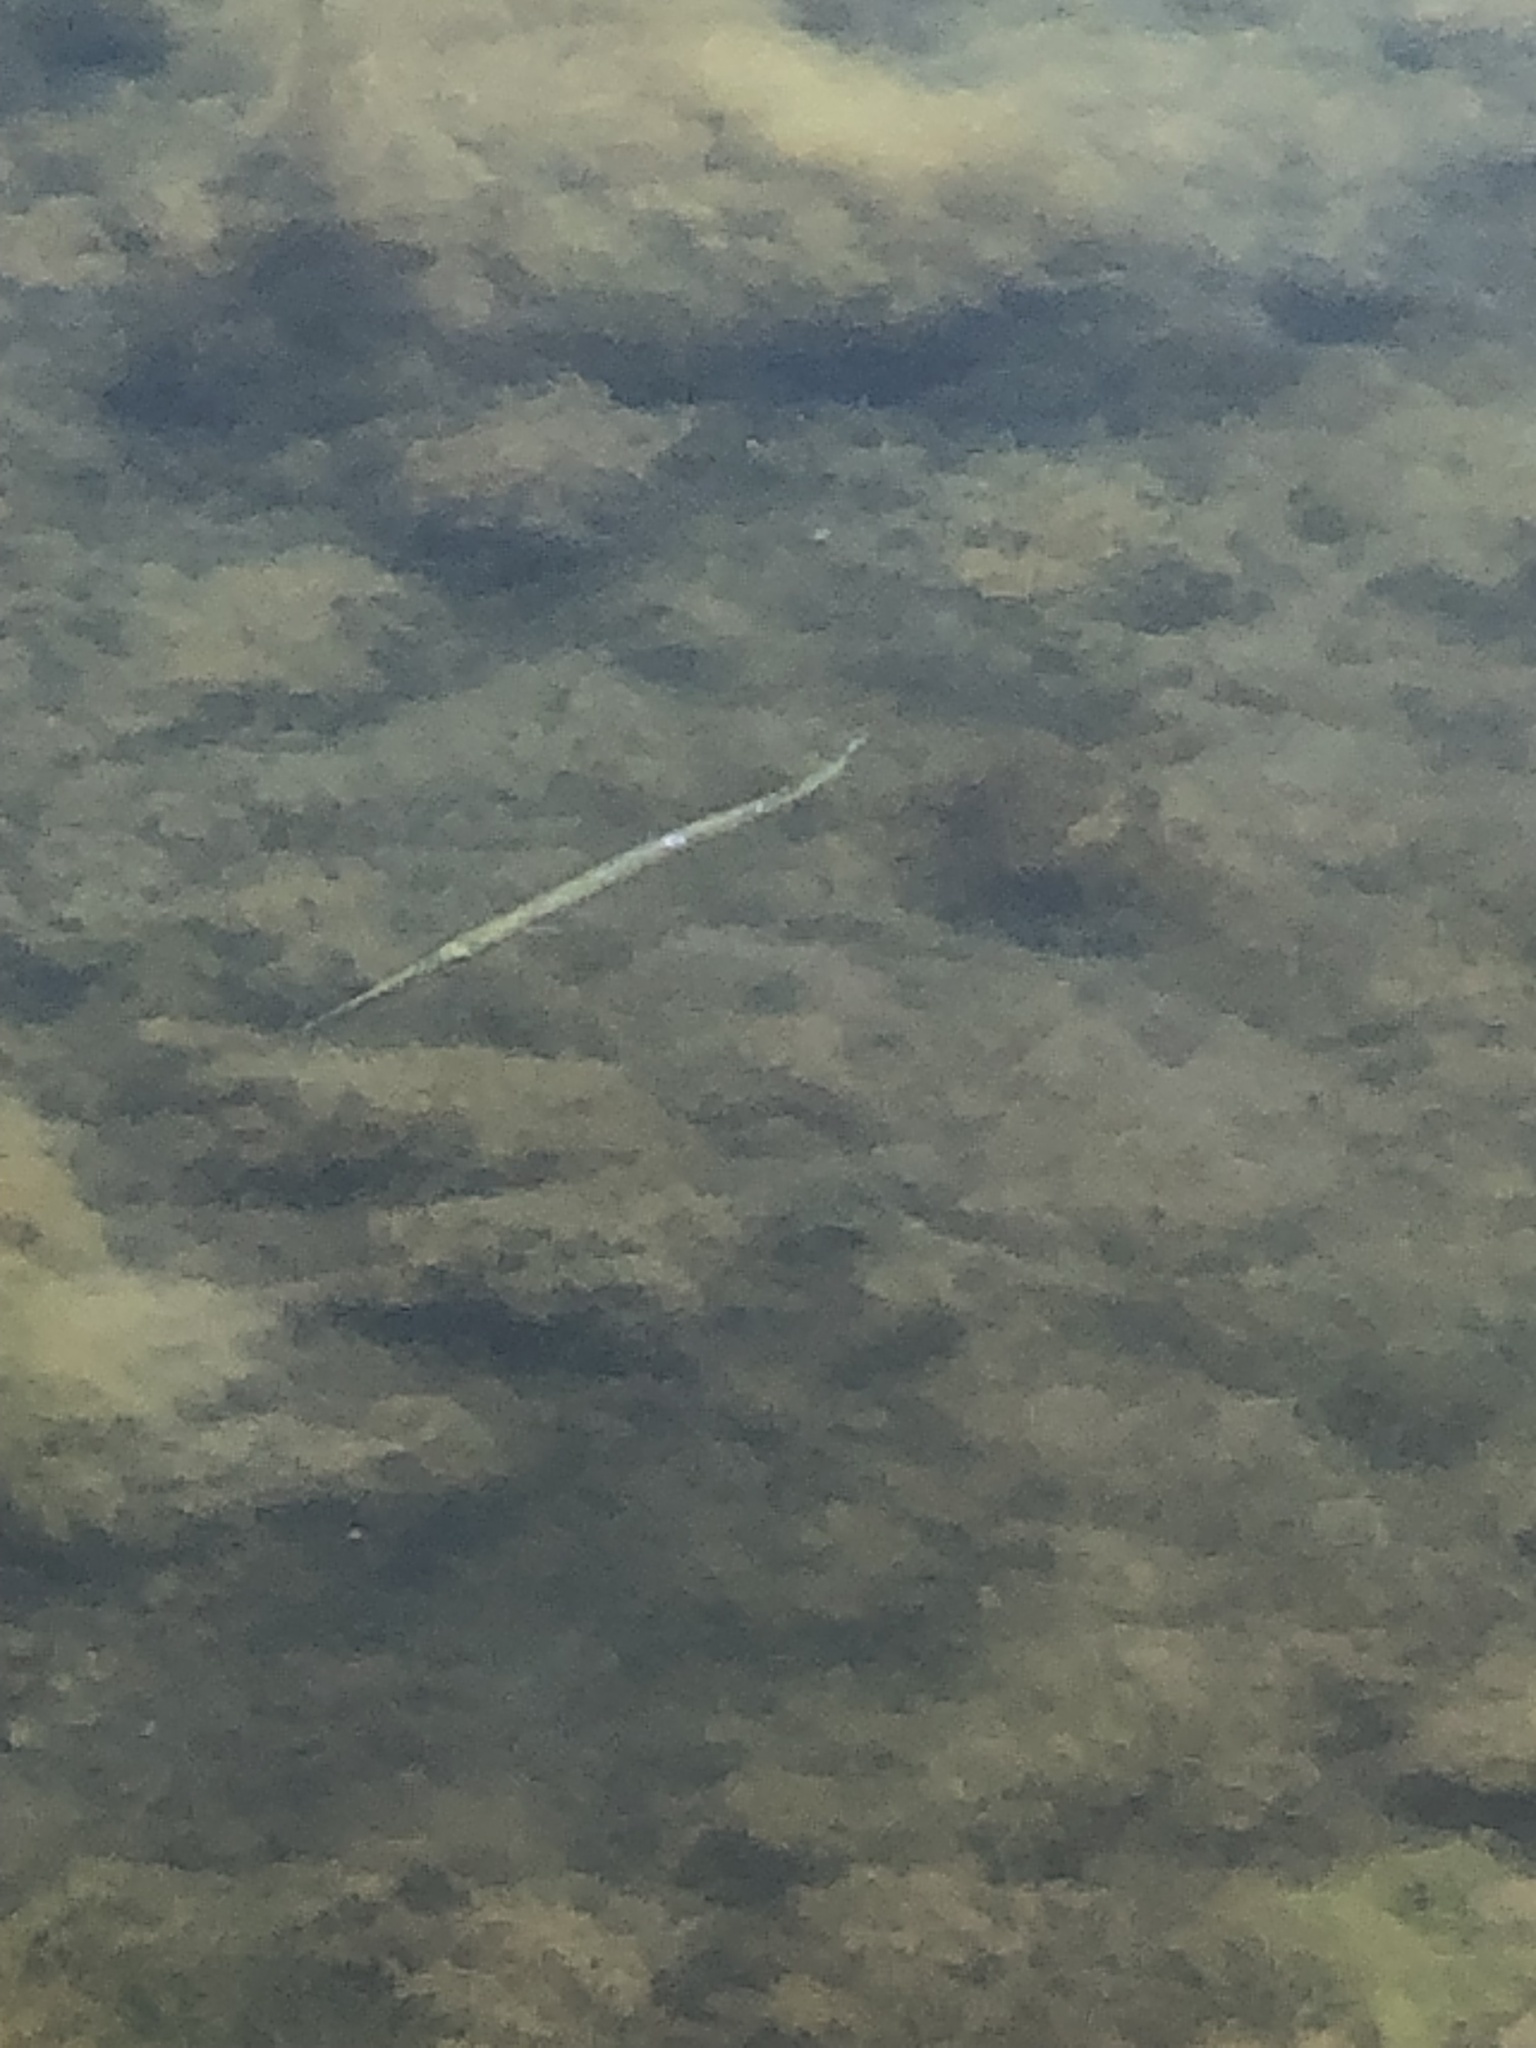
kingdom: Animalia
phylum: Chordata
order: Beloniformes
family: Belonidae
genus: Strongylura
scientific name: Strongylura marina
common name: Atlantic needlefish
